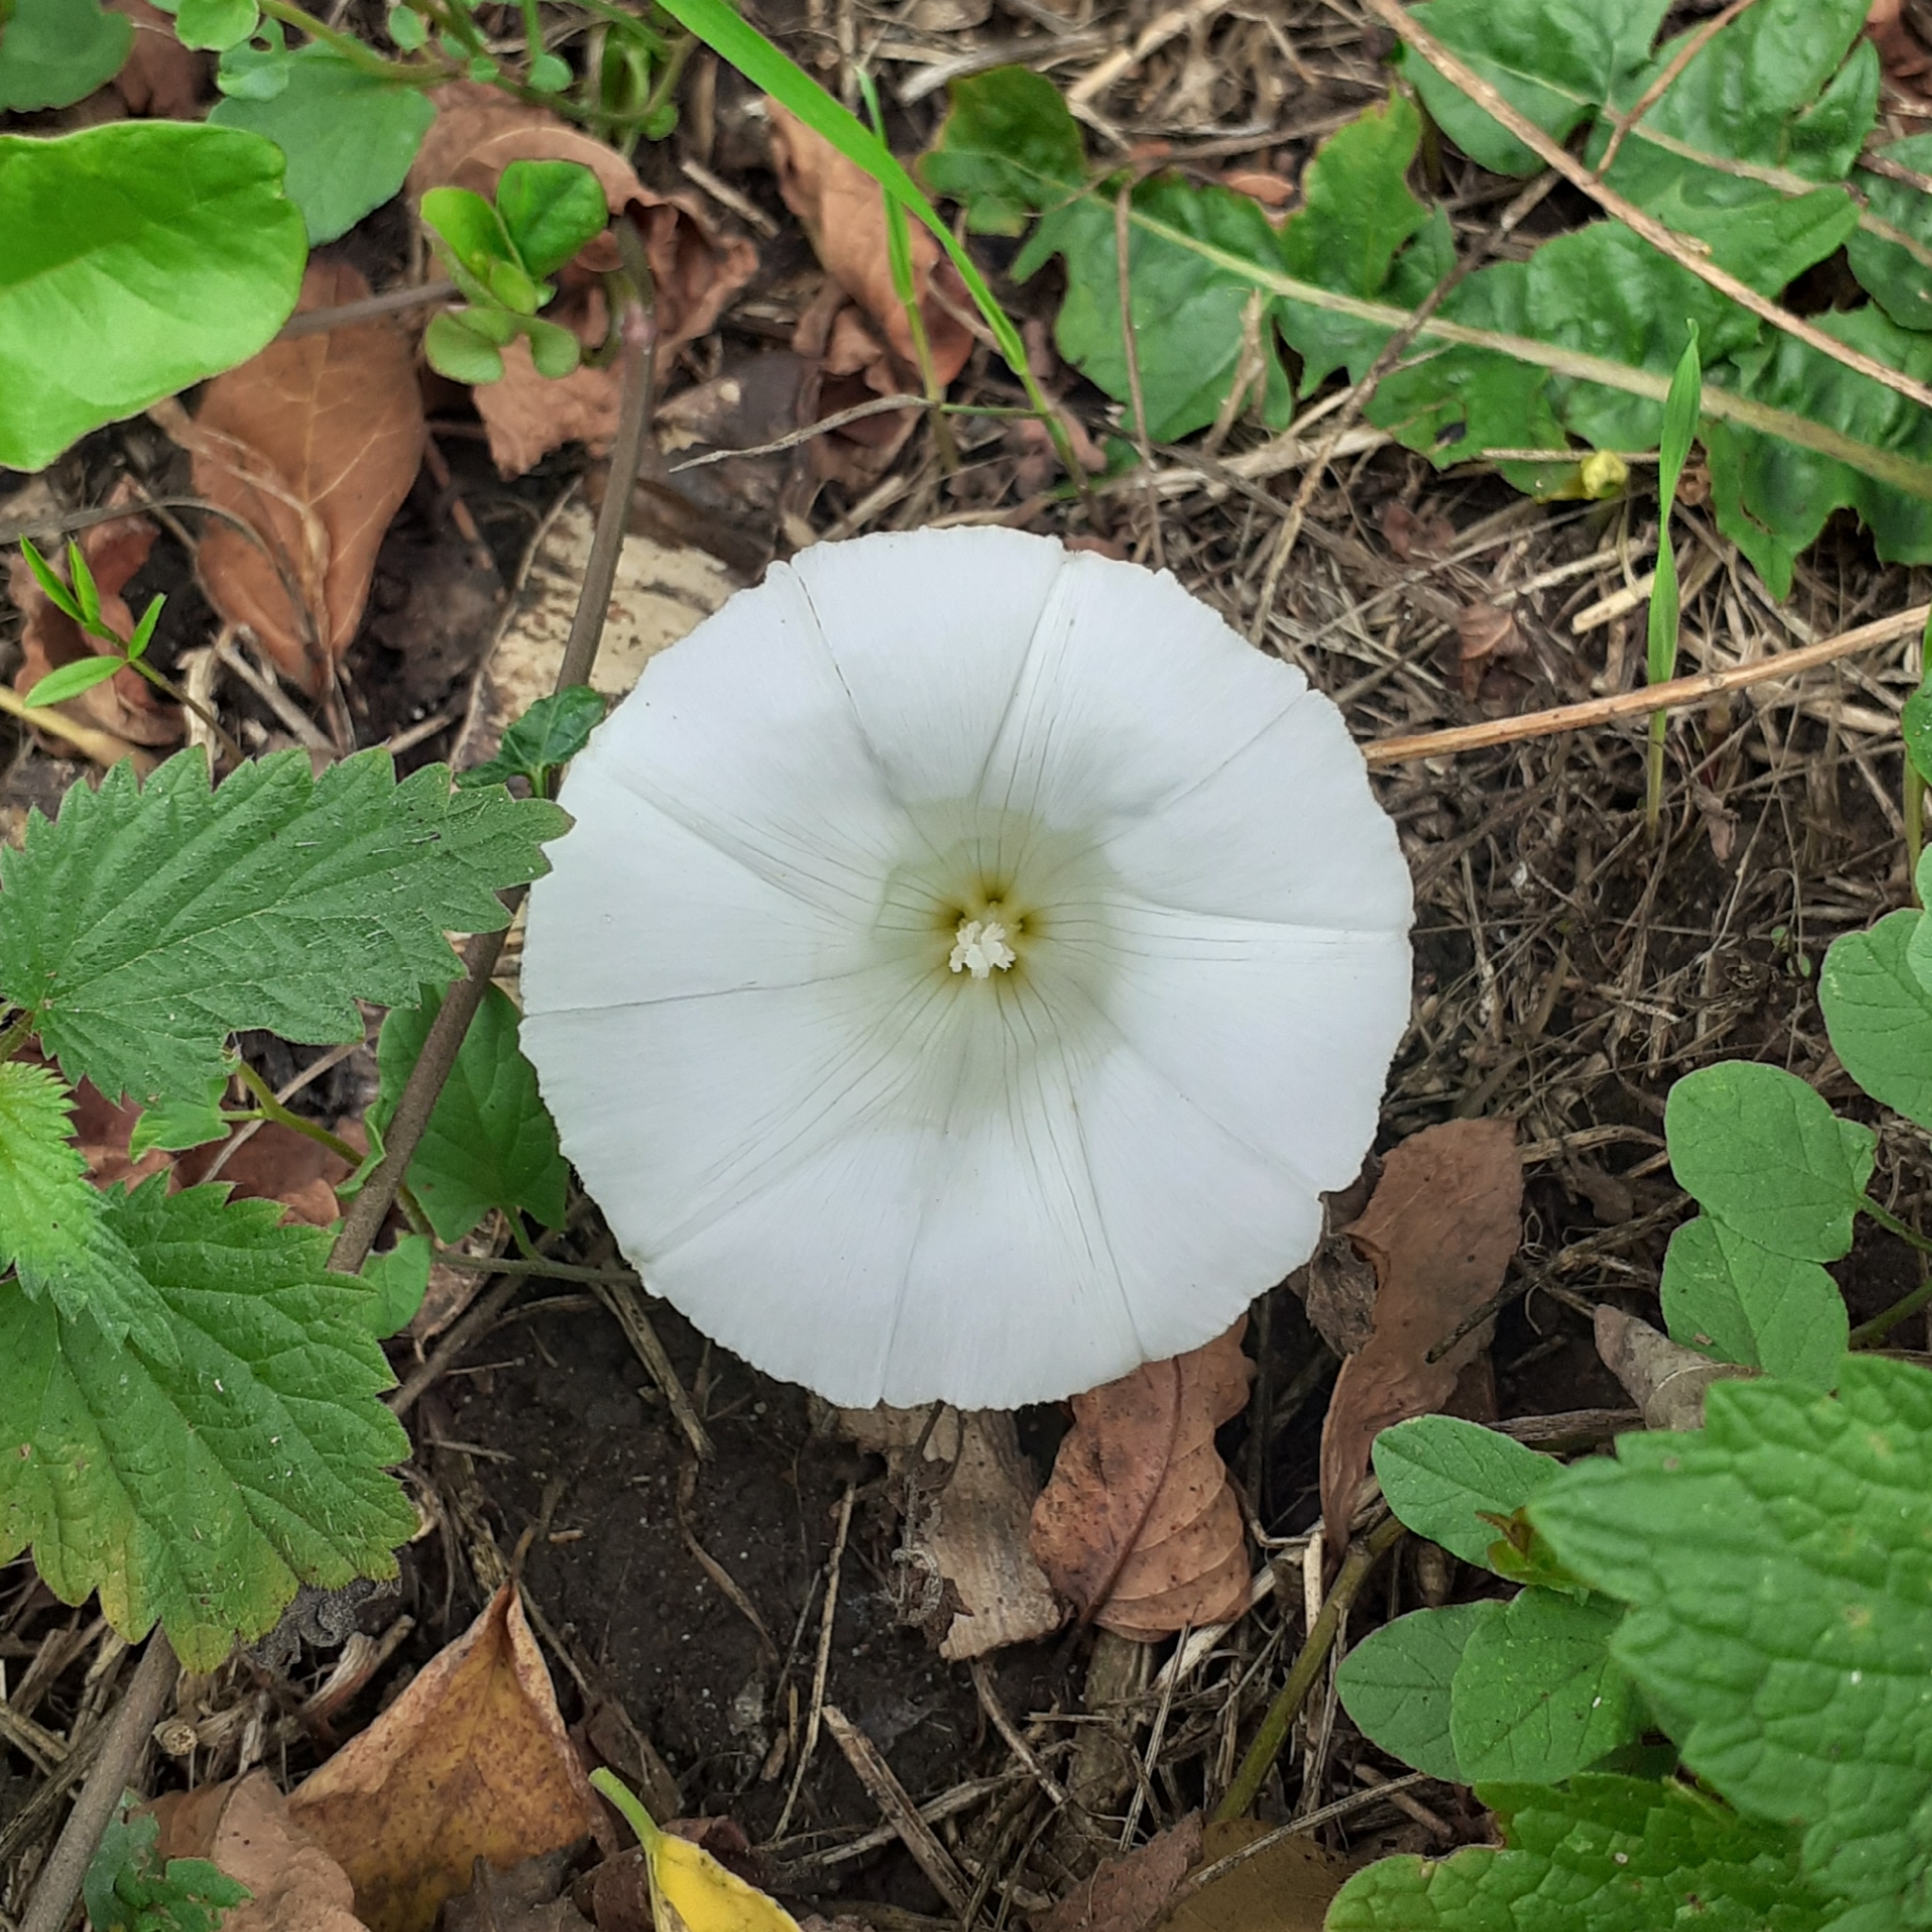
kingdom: Plantae
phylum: Tracheophyta
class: Magnoliopsida
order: Solanales
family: Convolvulaceae
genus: Calystegia
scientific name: Calystegia sepium
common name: Hedge bindweed
